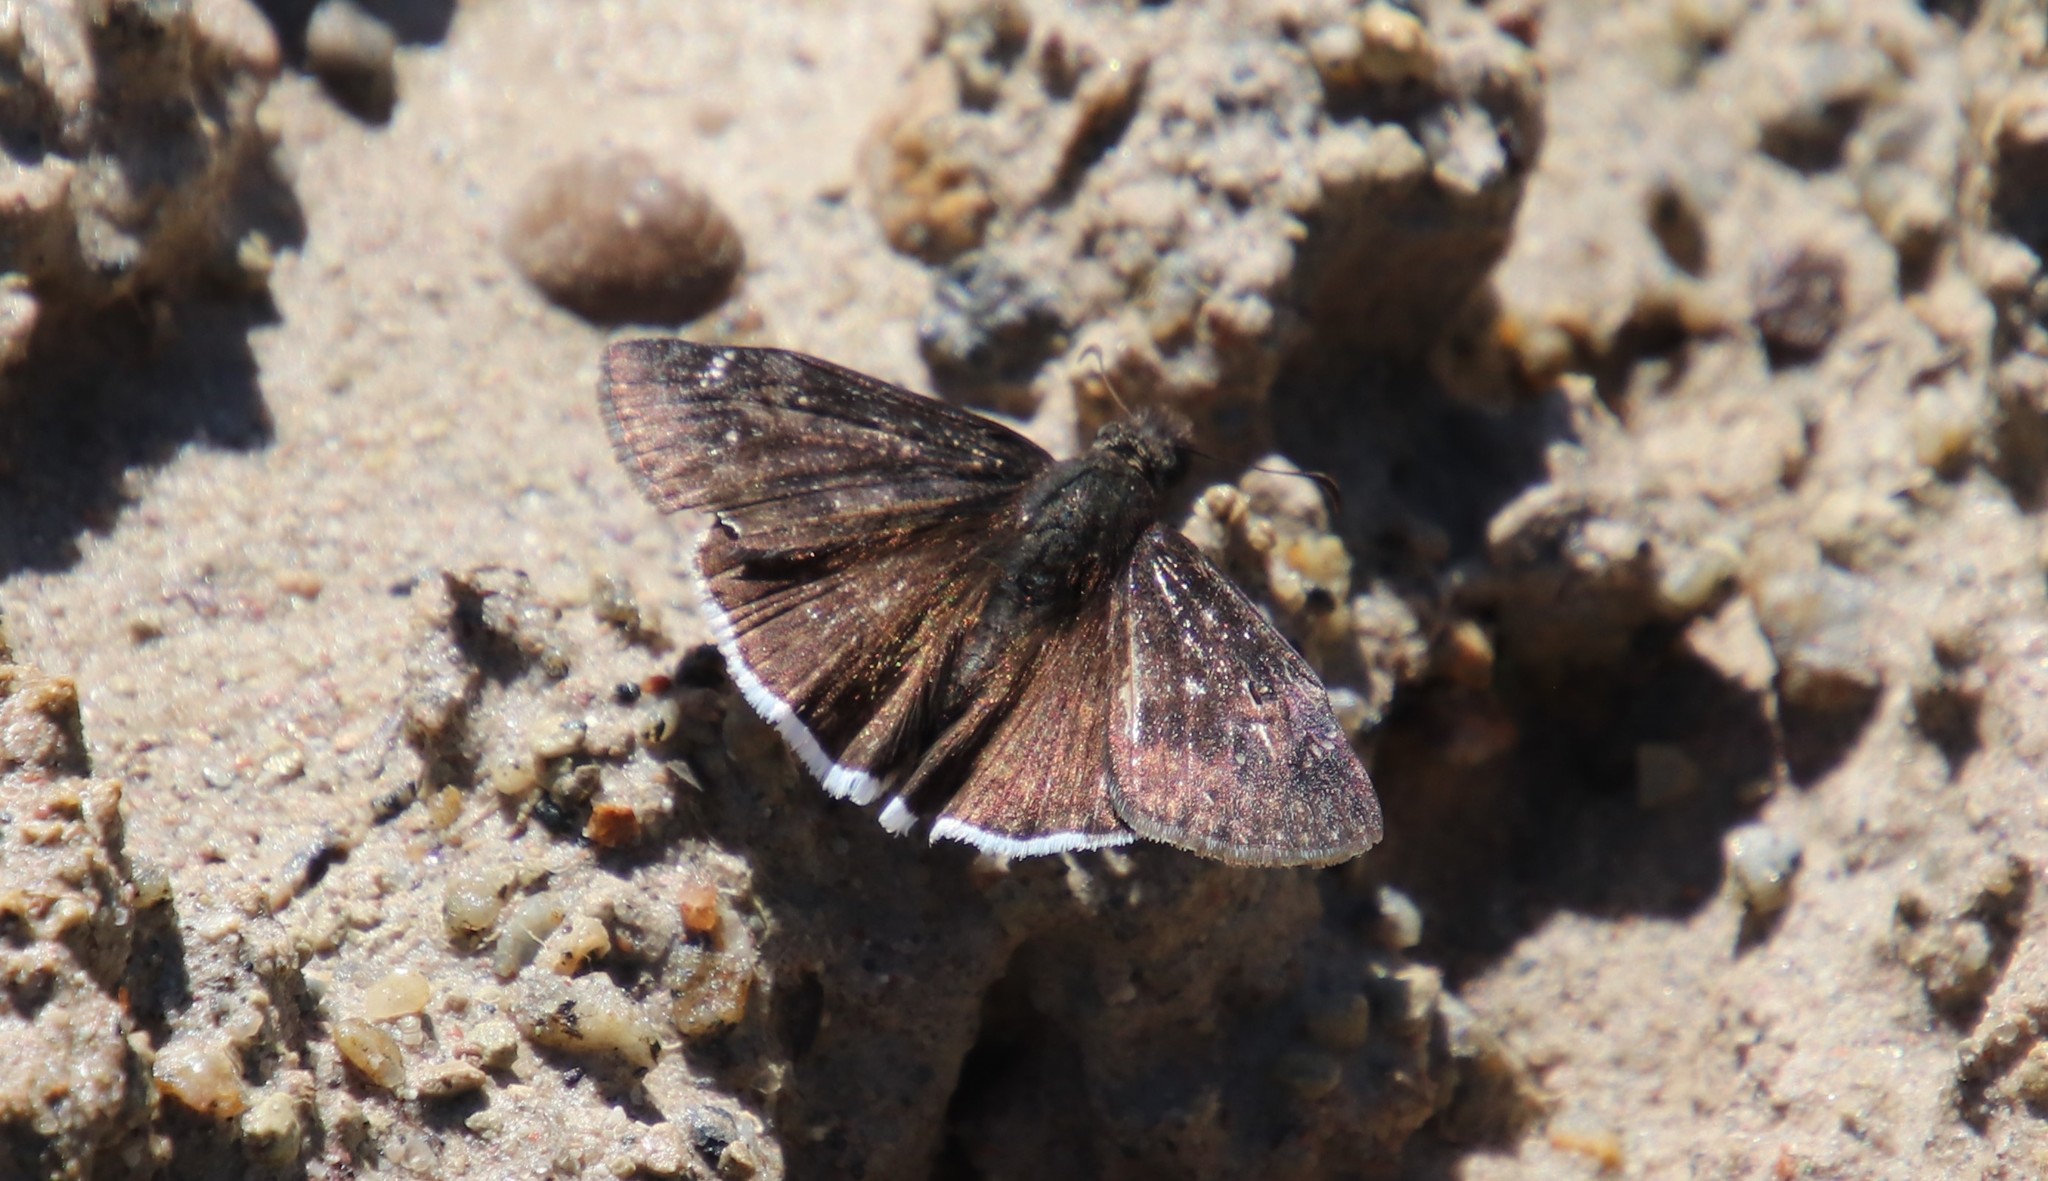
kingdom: Animalia
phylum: Arthropoda
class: Insecta
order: Lepidoptera
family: Hesperiidae
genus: Erynnis
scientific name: Erynnis funeralis
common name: Funereal duskywing
